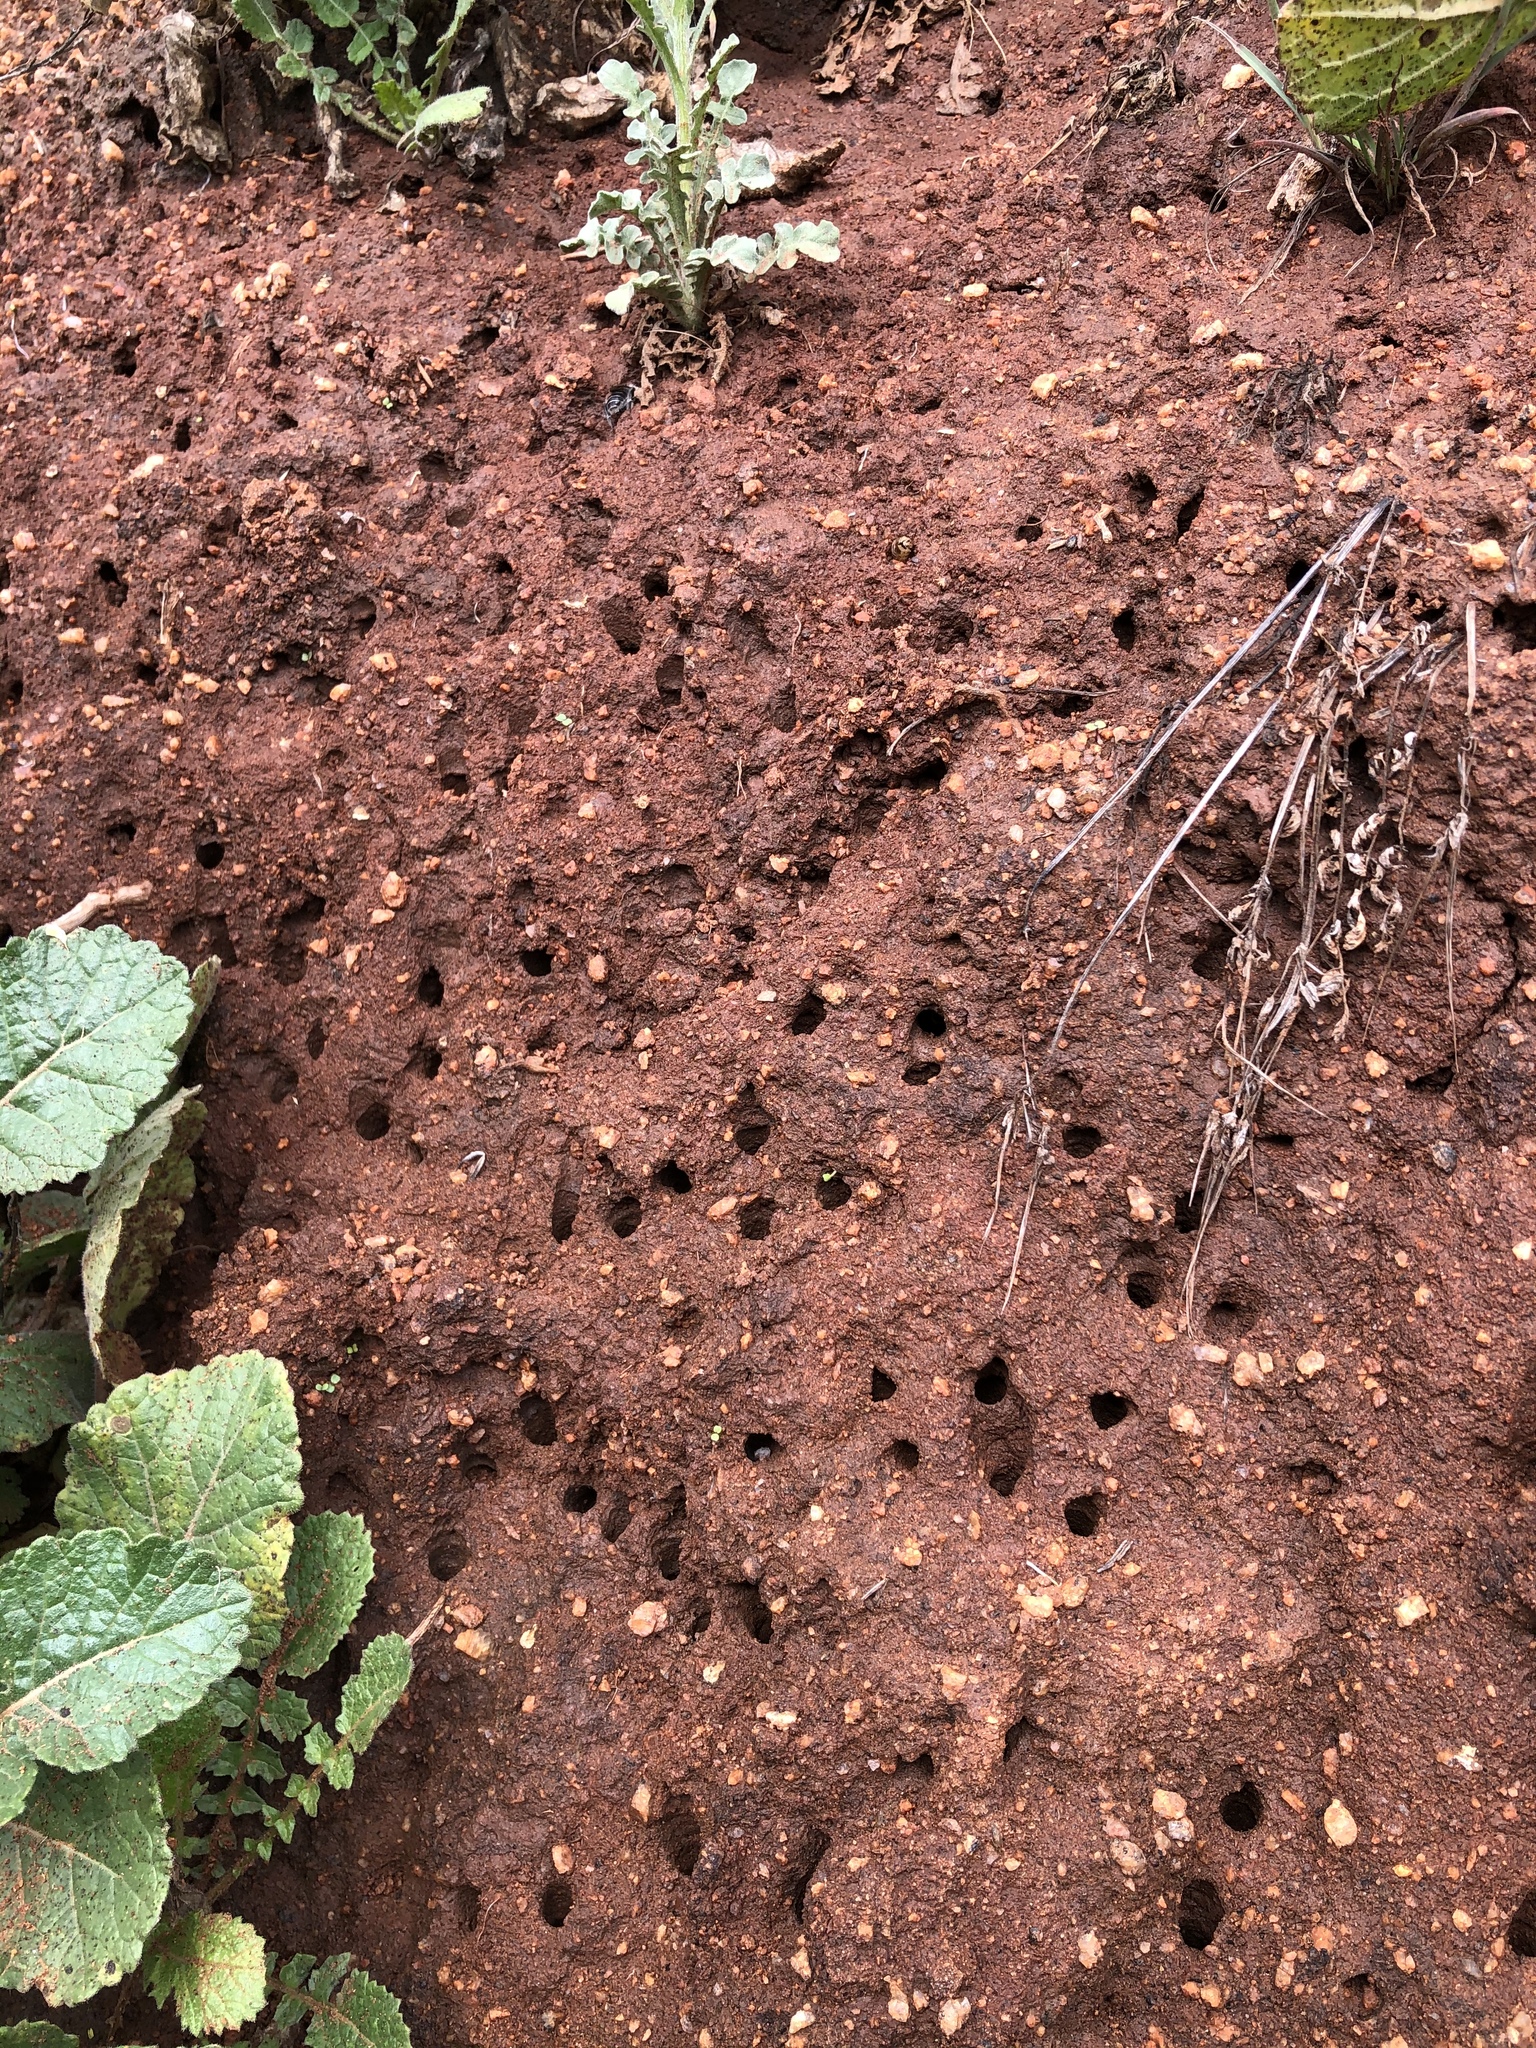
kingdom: Animalia
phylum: Arthropoda
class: Insecta
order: Hymenoptera
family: Apidae
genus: Diadasia
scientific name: Diadasia bituberculata
